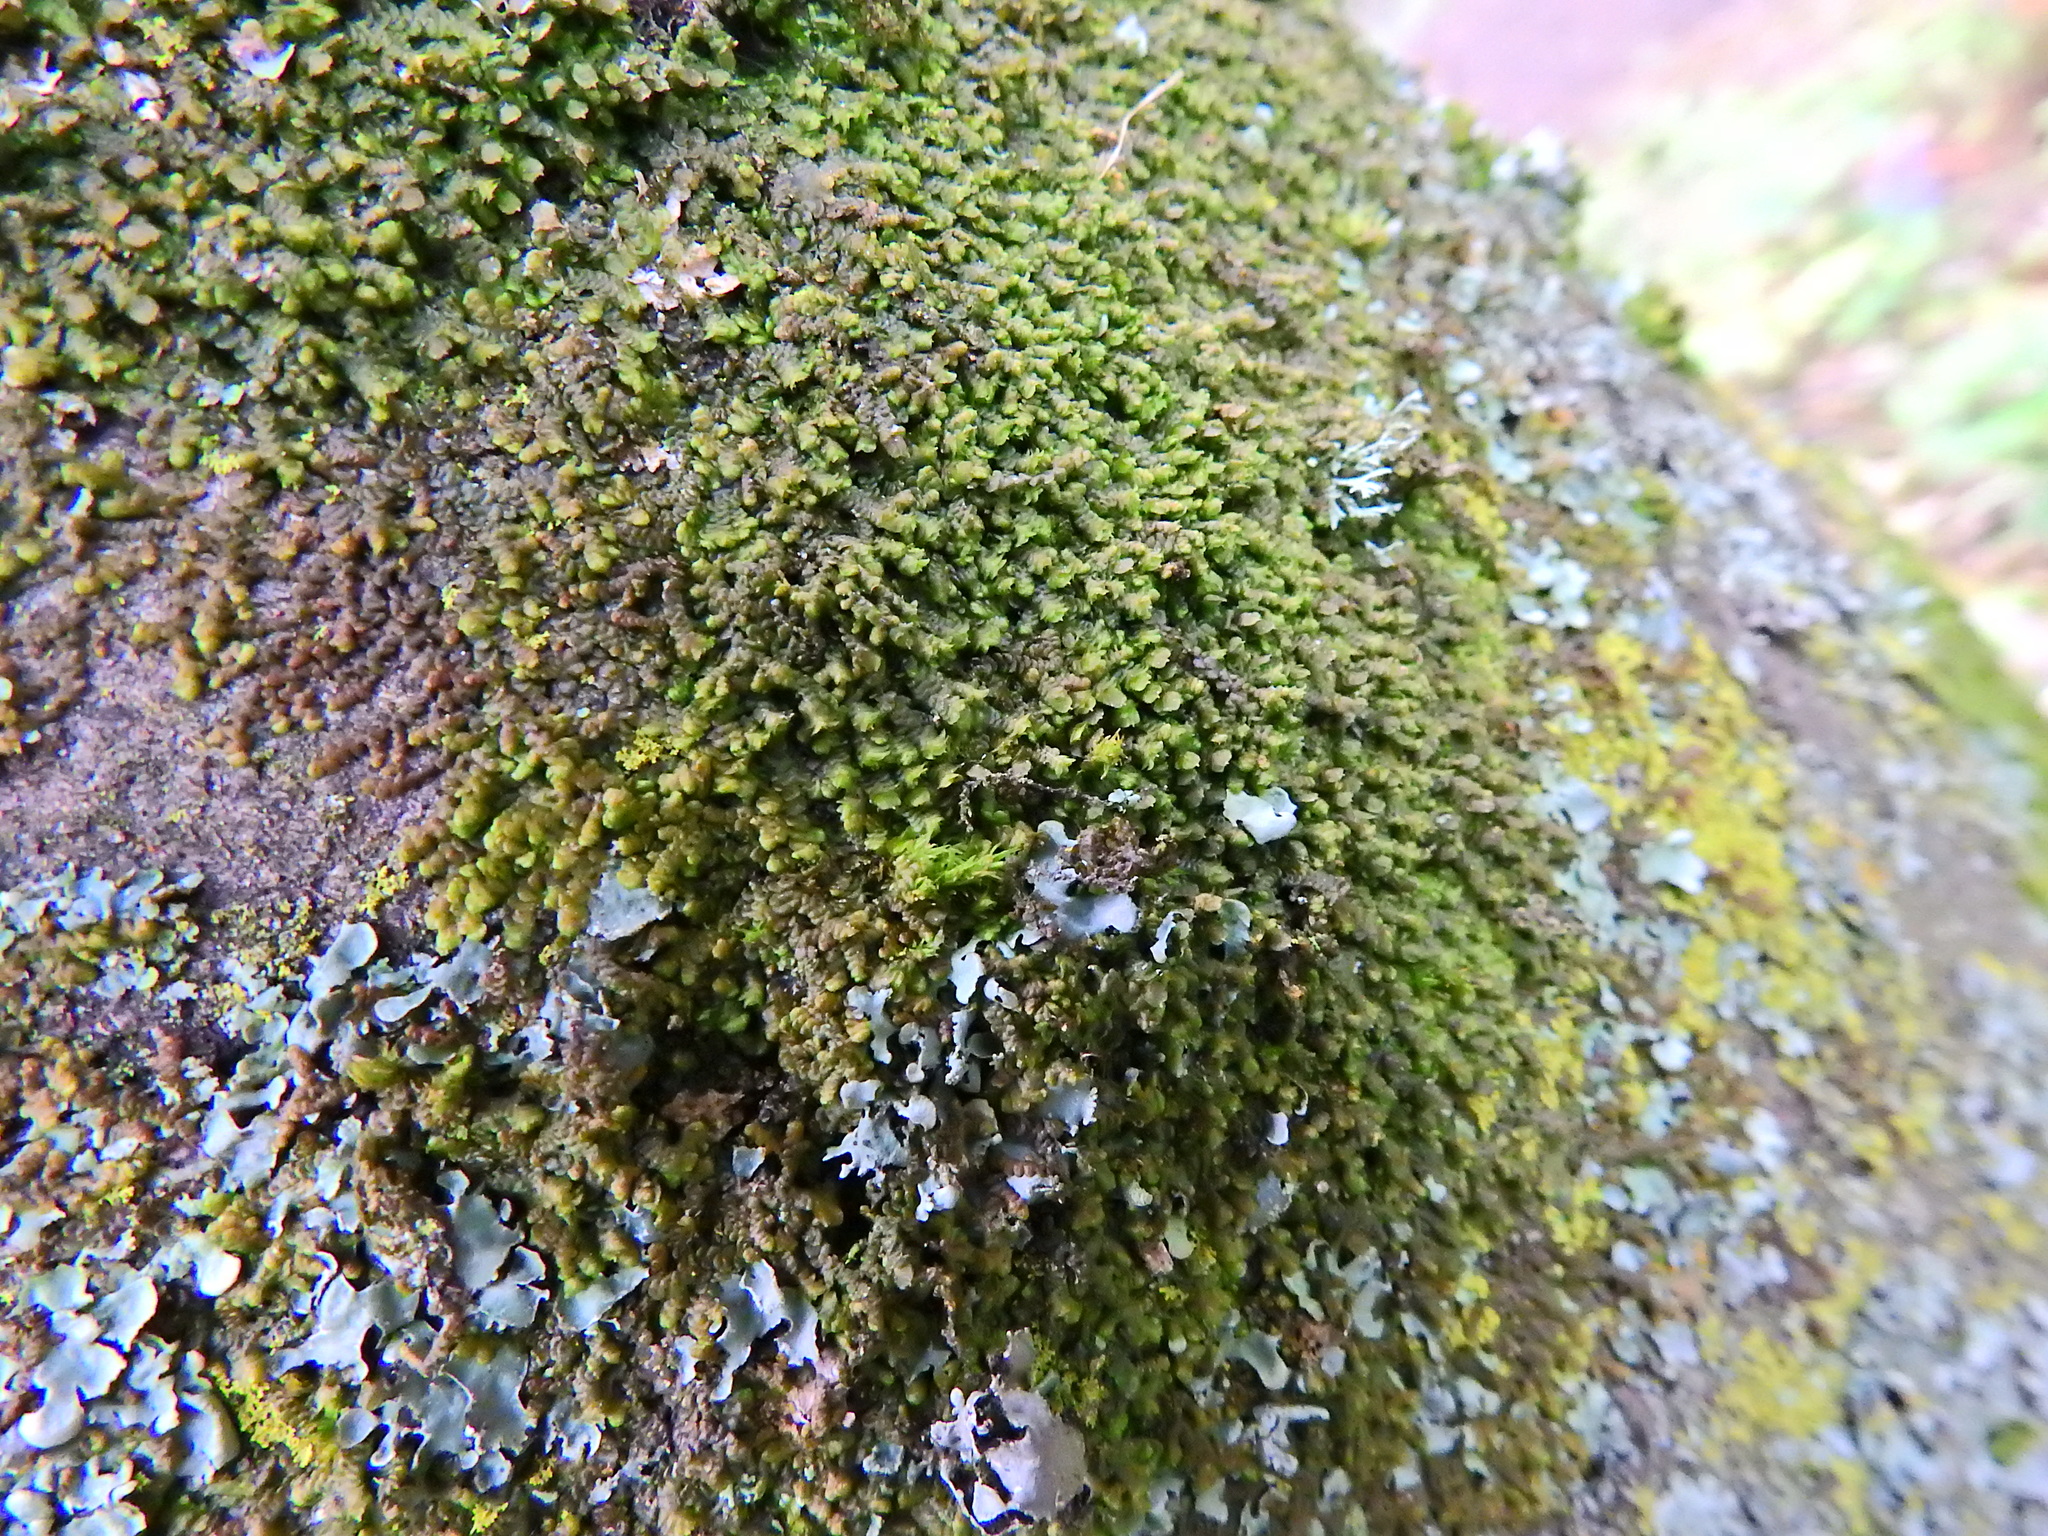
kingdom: Plantae
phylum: Marchantiophyta
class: Jungermanniopsida
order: Porellales
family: Frullaniaceae
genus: Frullania
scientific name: Frullania dilatata
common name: Dilated scalewort
